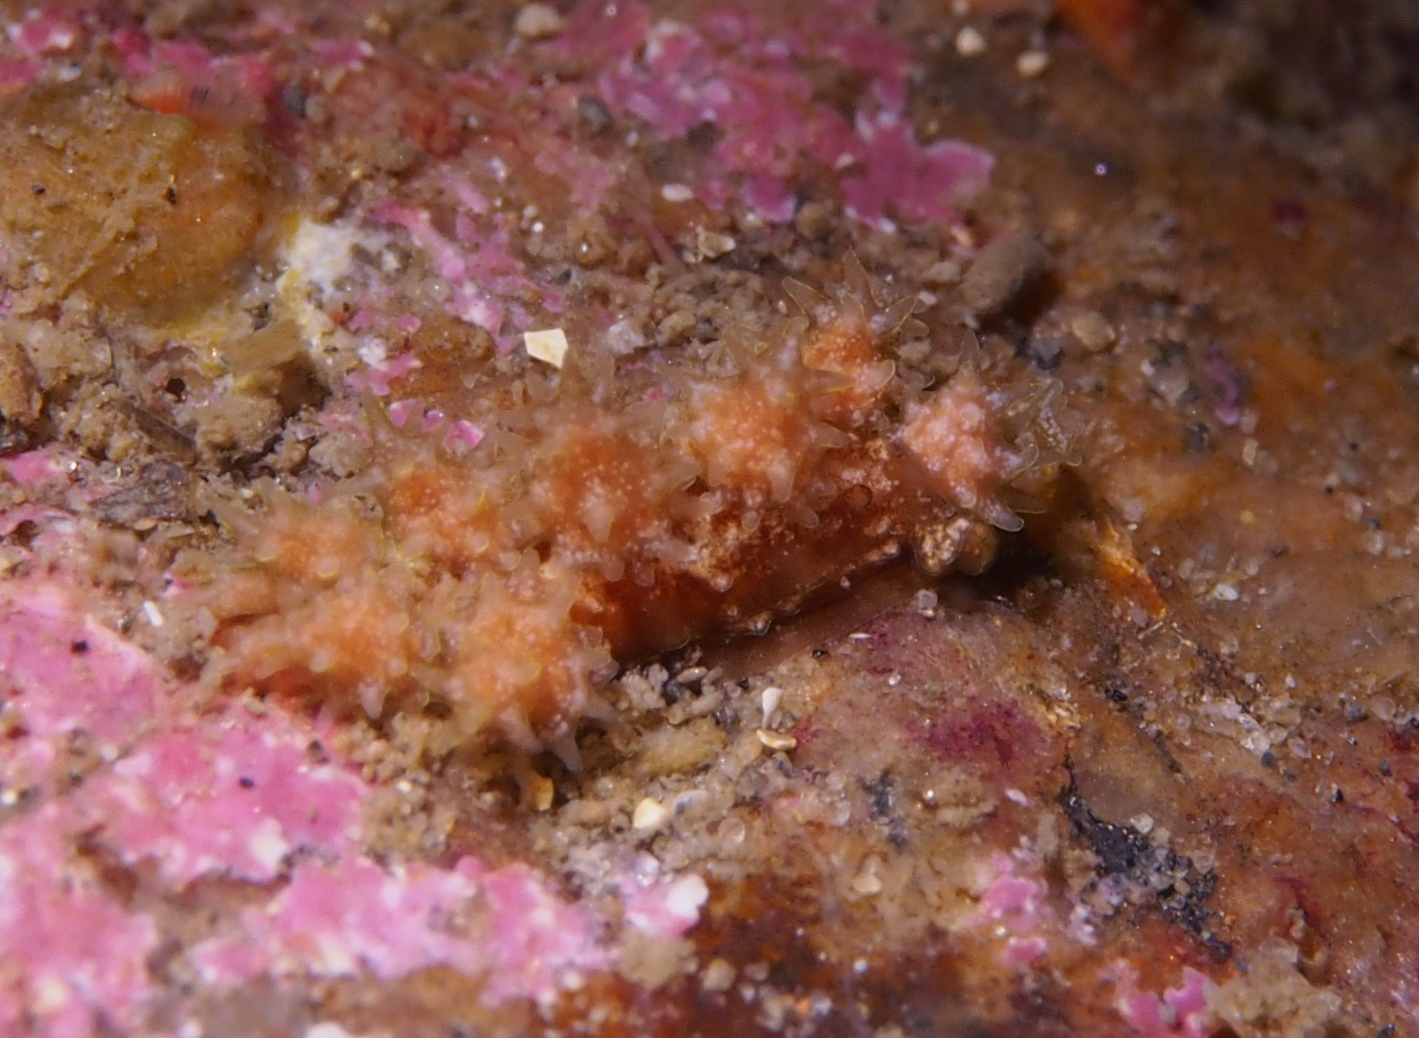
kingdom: Animalia
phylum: Mollusca
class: Gastropoda
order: Nudibranchia
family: Dotidae
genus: Doto
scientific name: Doto hystrix
